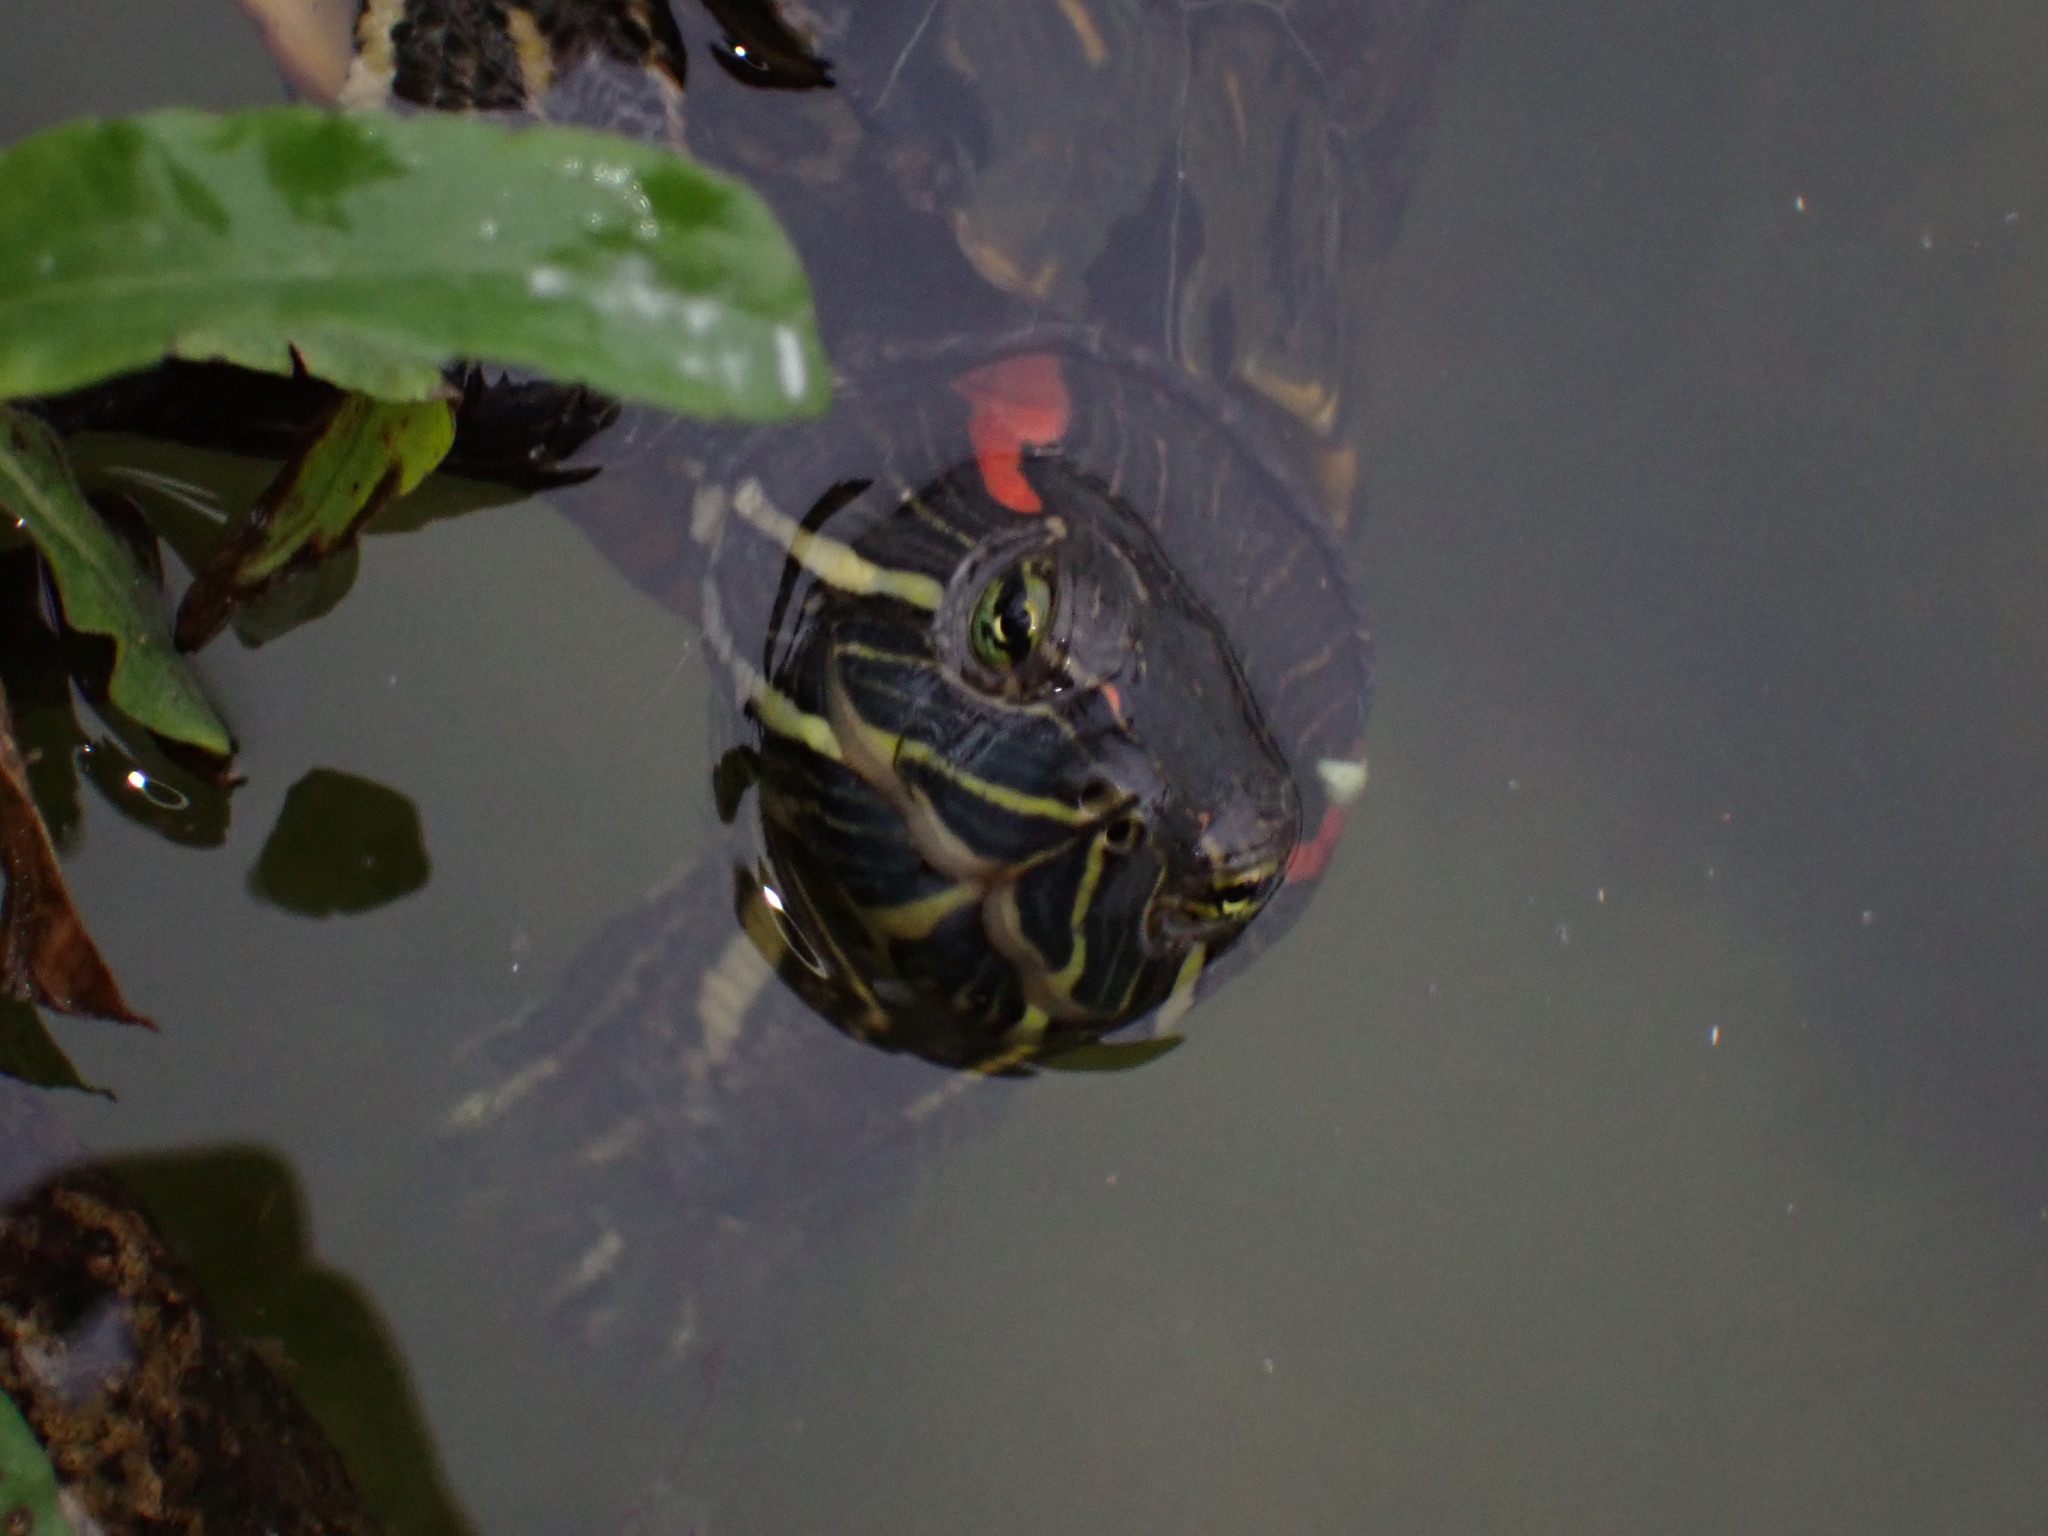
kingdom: Animalia
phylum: Chordata
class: Testudines
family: Emydidae
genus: Trachemys
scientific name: Trachemys scripta
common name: Slider
